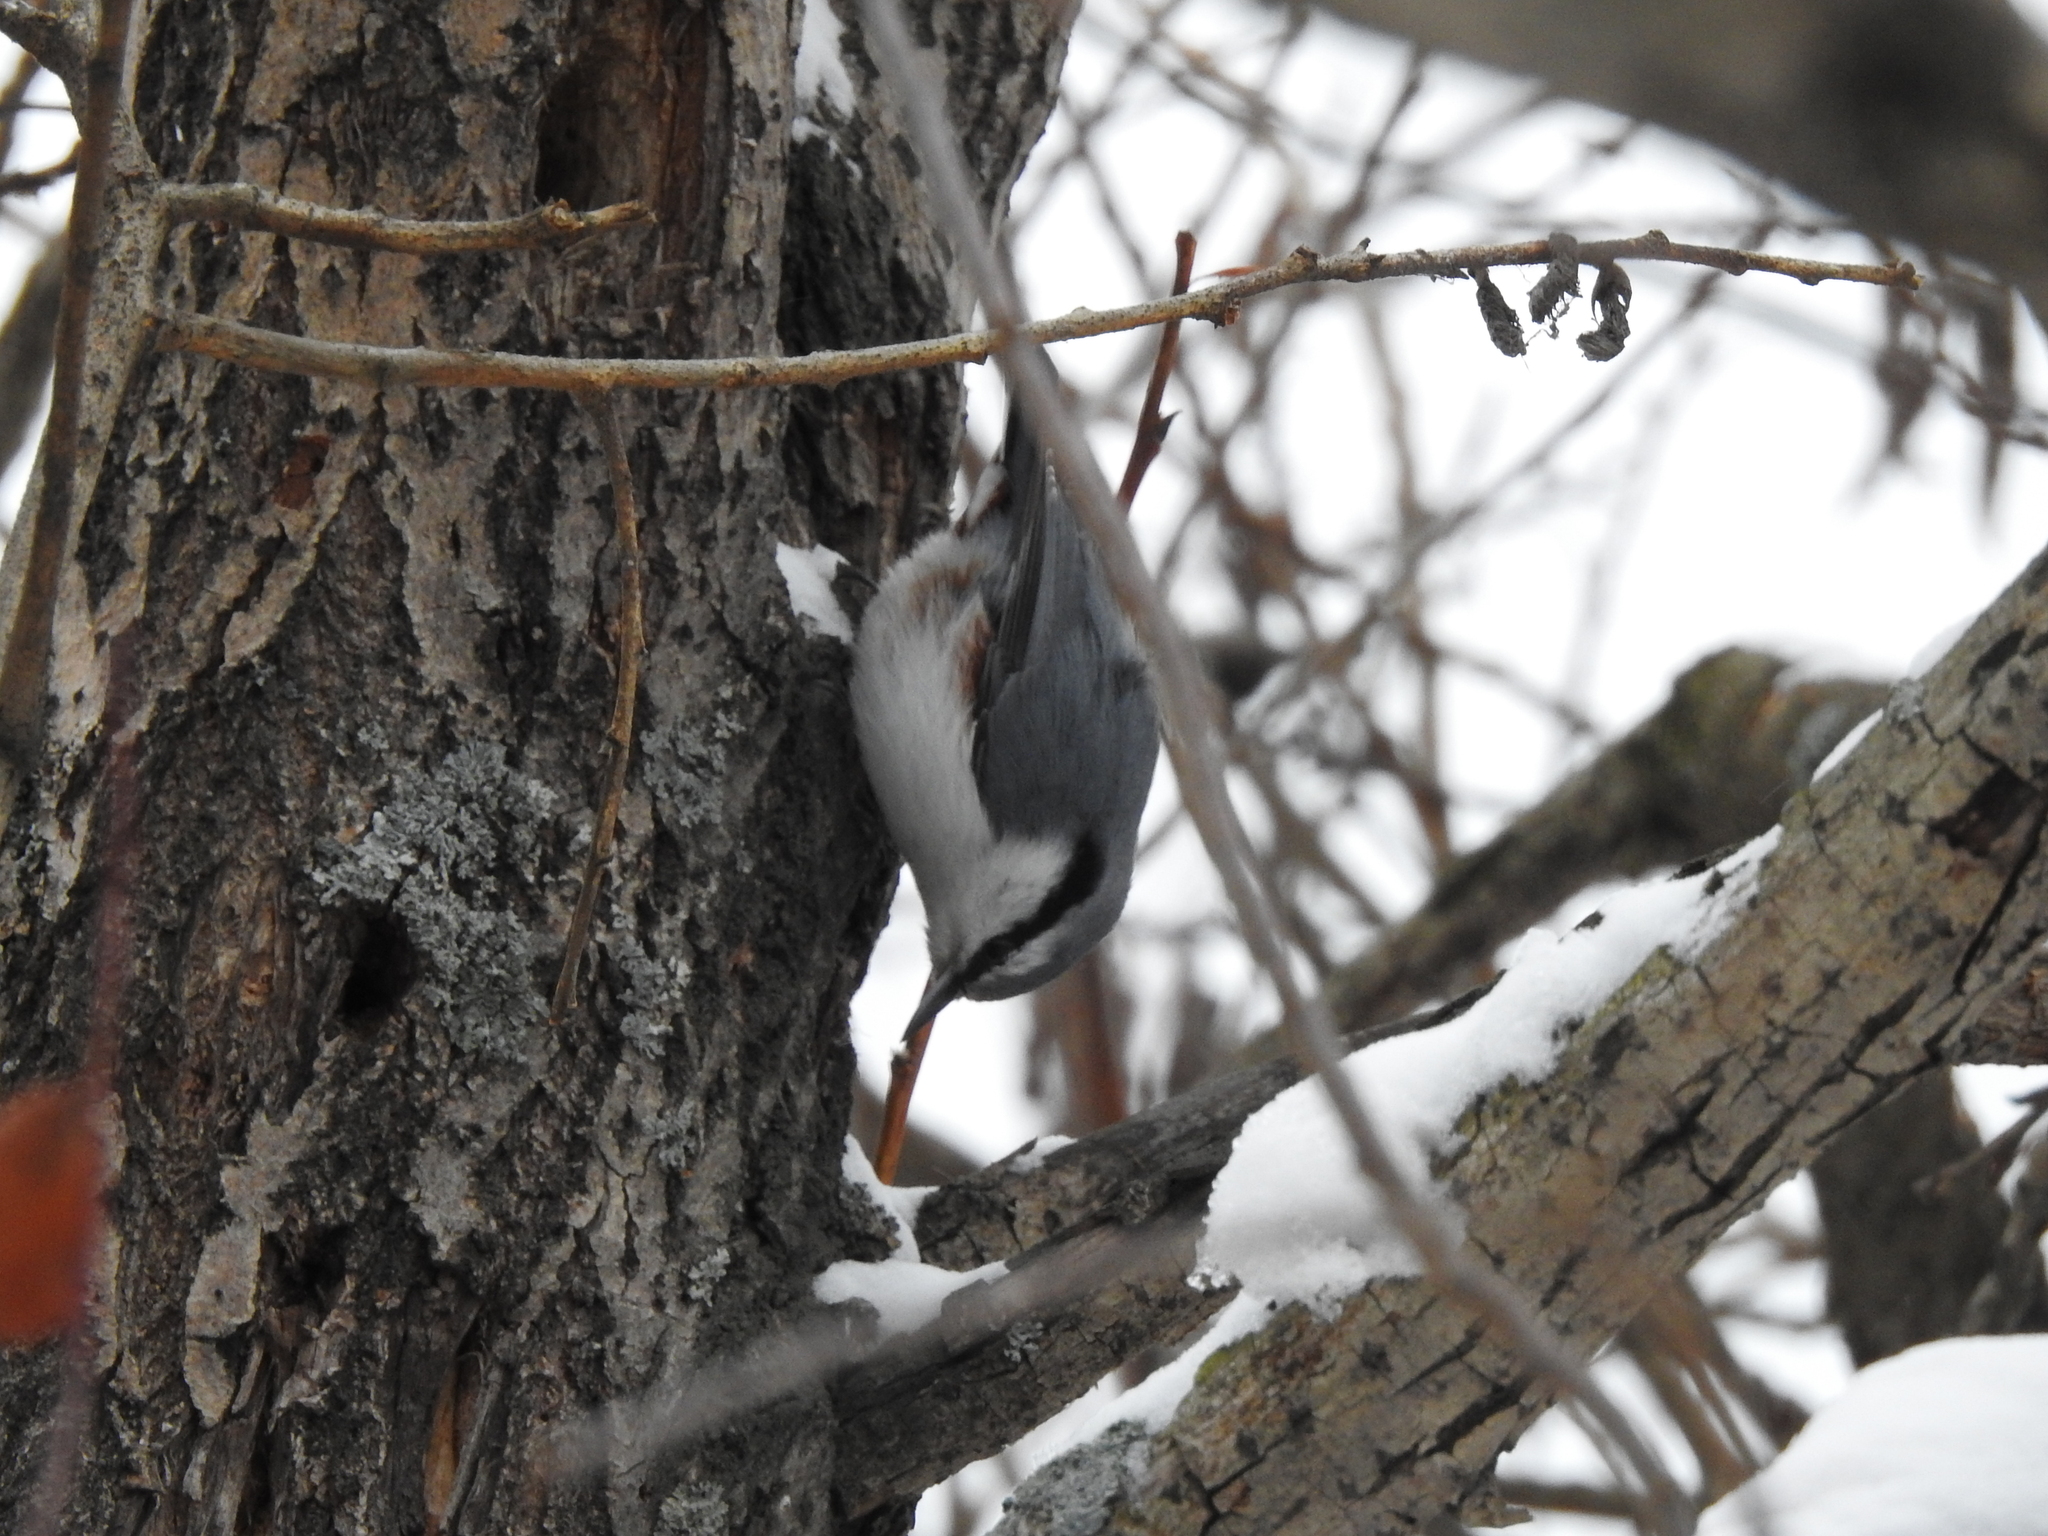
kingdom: Animalia
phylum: Chordata
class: Aves
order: Passeriformes
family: Sittidae
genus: Sitta
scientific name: Sitta europaea
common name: Eurasian nuthatch
